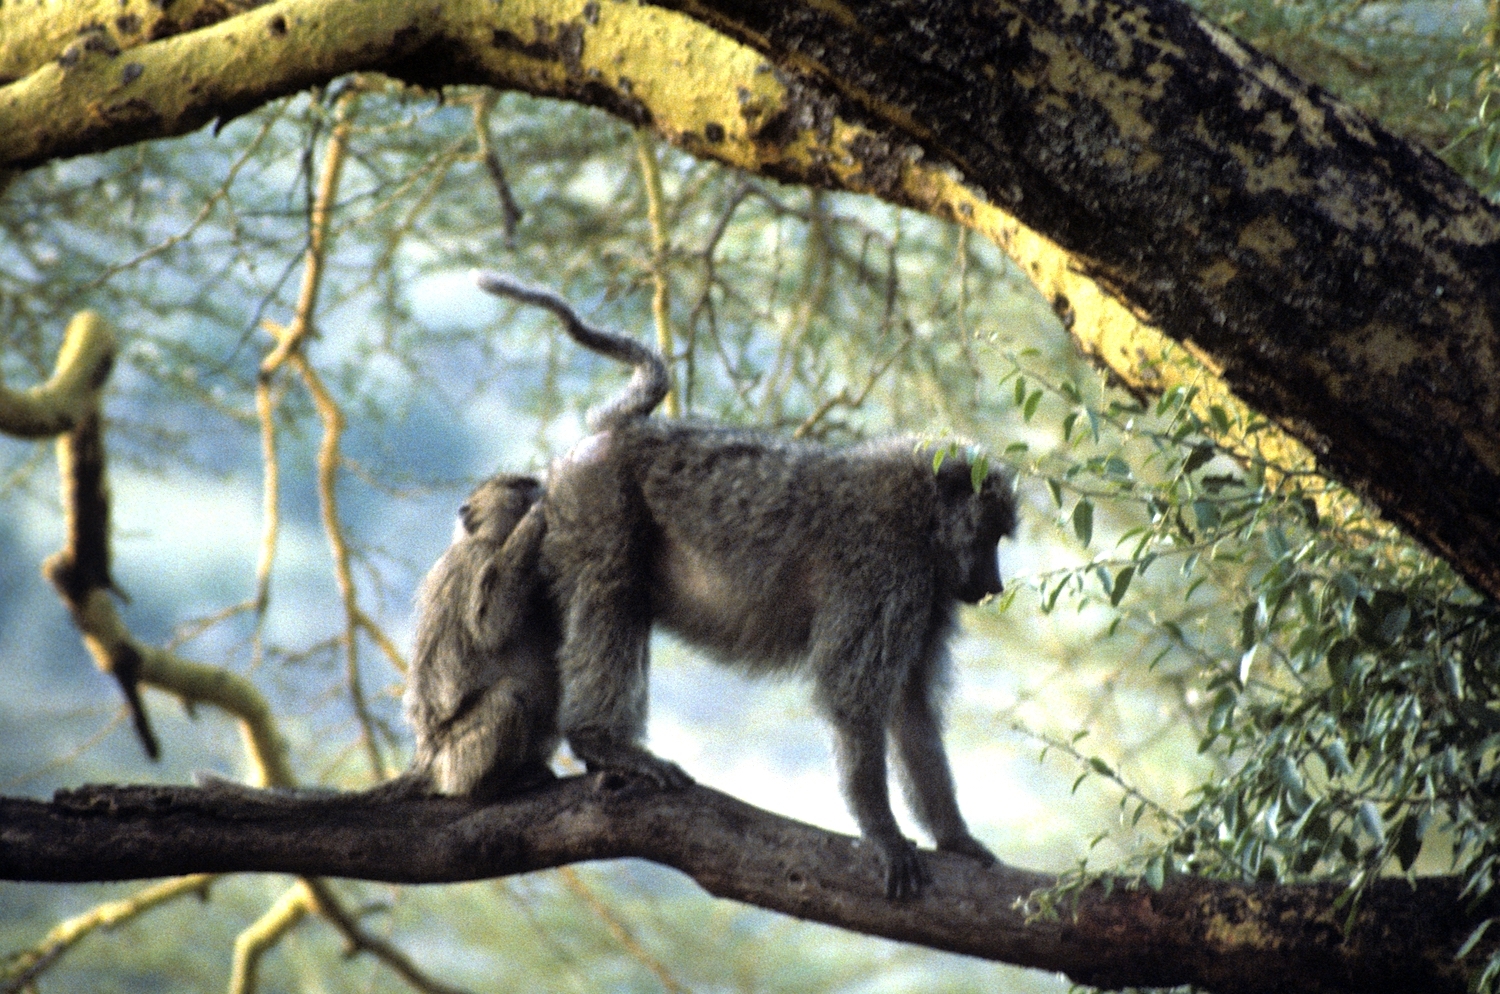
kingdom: Animalia
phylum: Chordata
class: Mammalia
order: Primates
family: Cercopithecidae
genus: Papio
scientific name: Papio anubis
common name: Olive baboon
